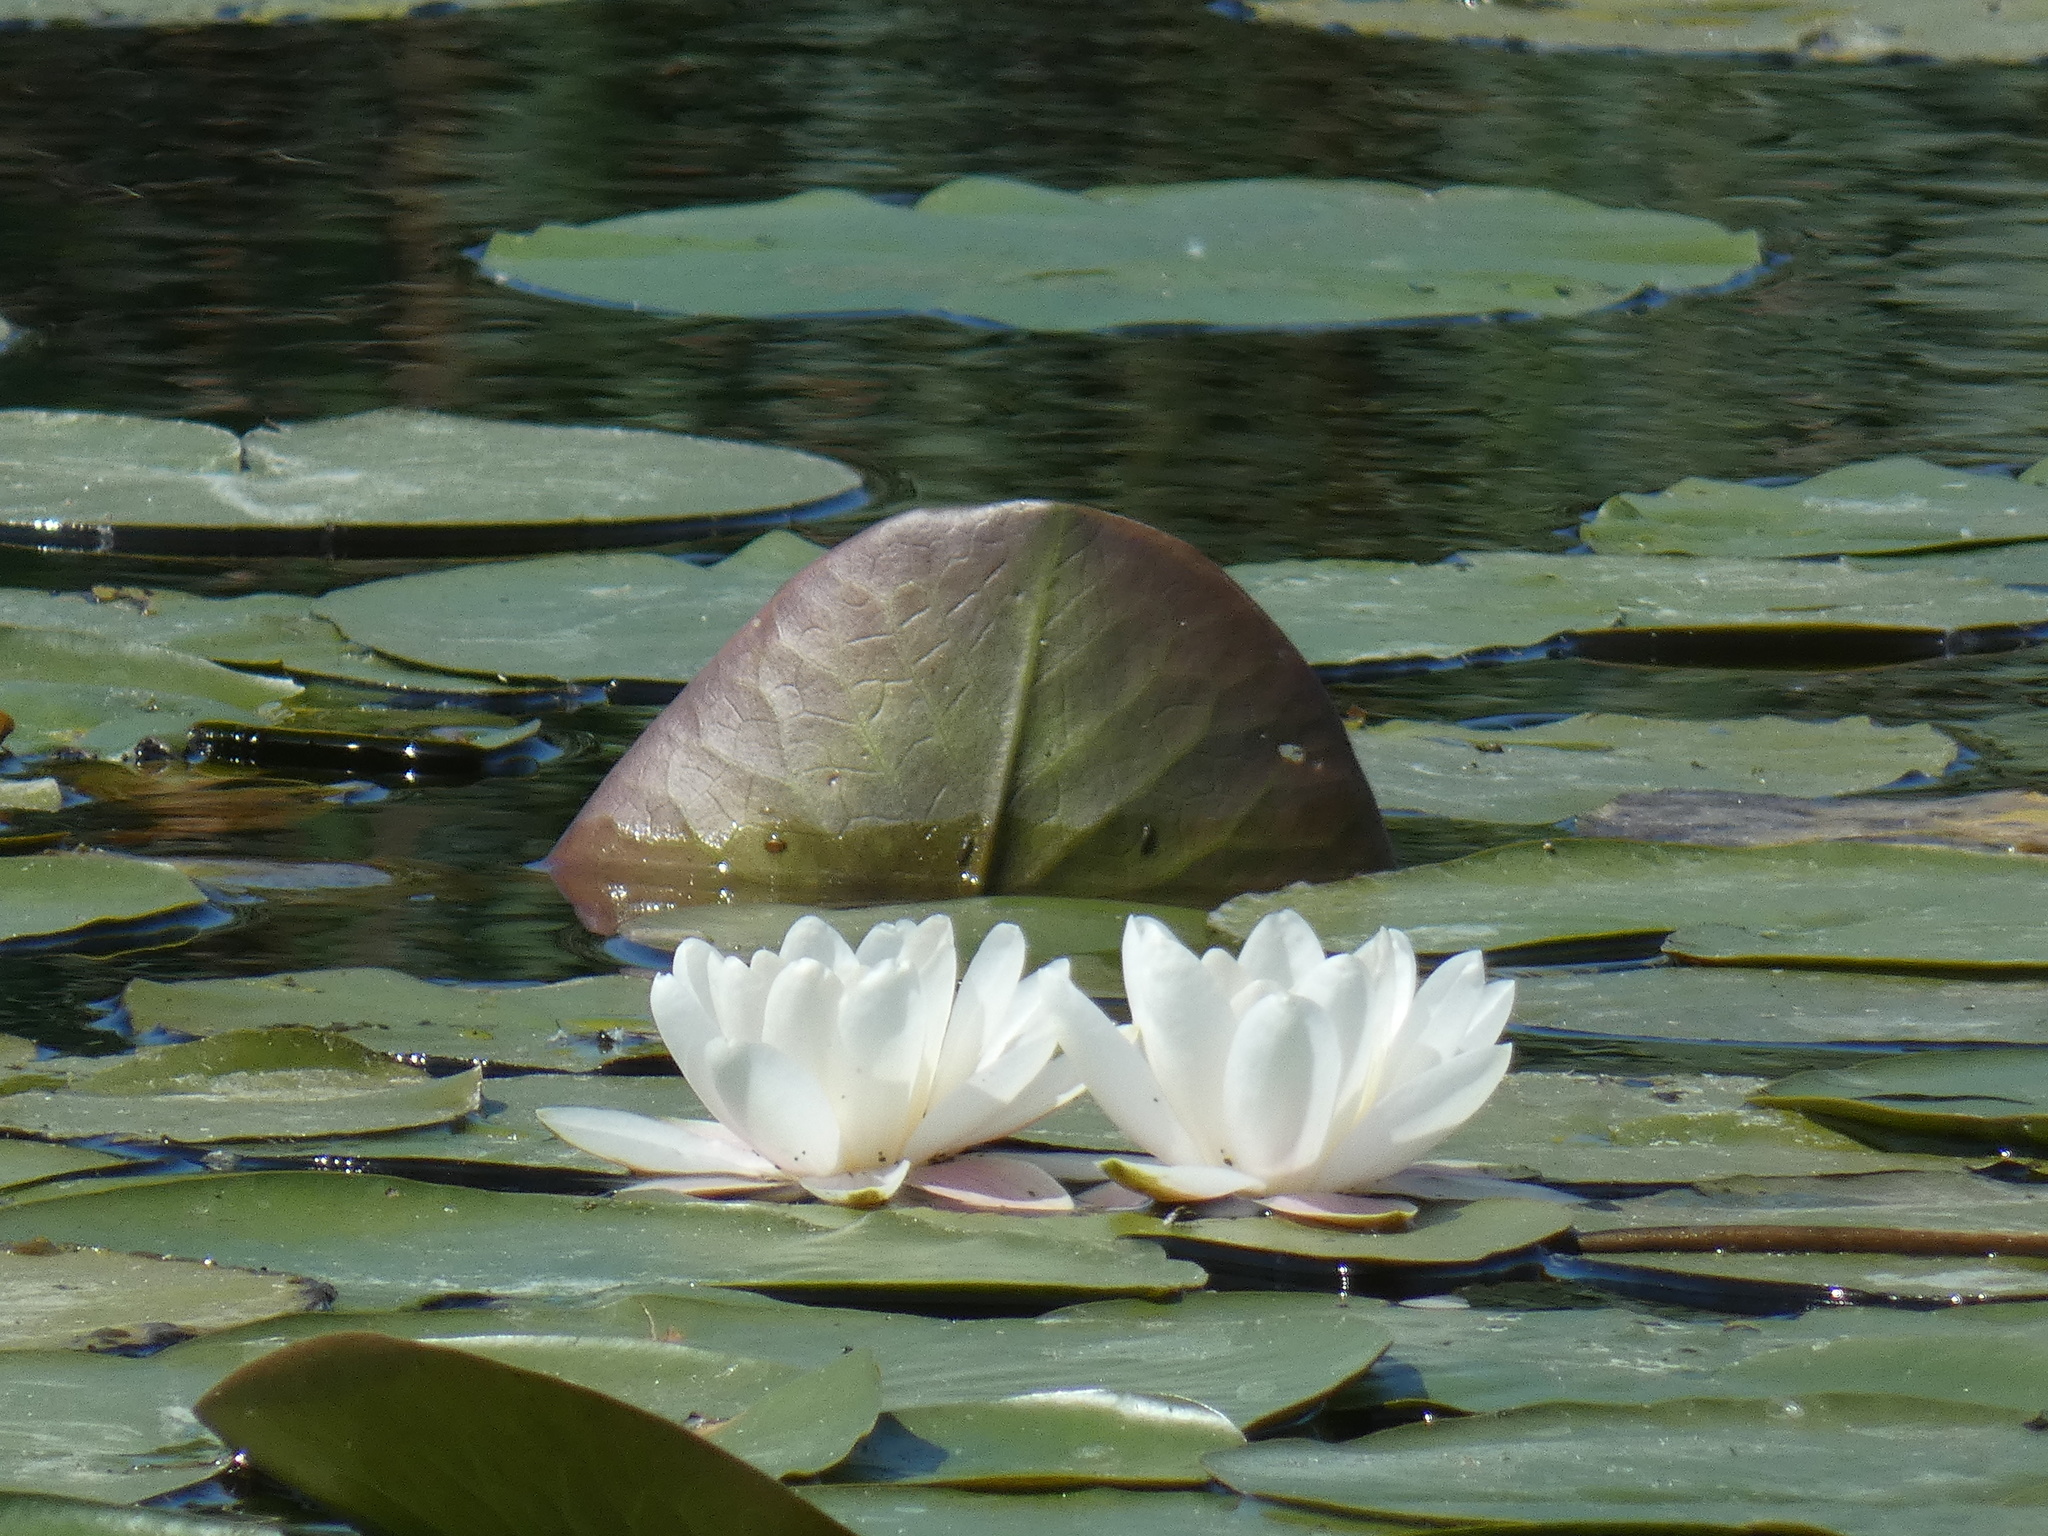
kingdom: Plantae
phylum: Tracheophyta
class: Magnoliopsida
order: Nymphaeales
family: Nymphaeaceae
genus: Nymphaea
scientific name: Nymphaea alba
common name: White water-lily
